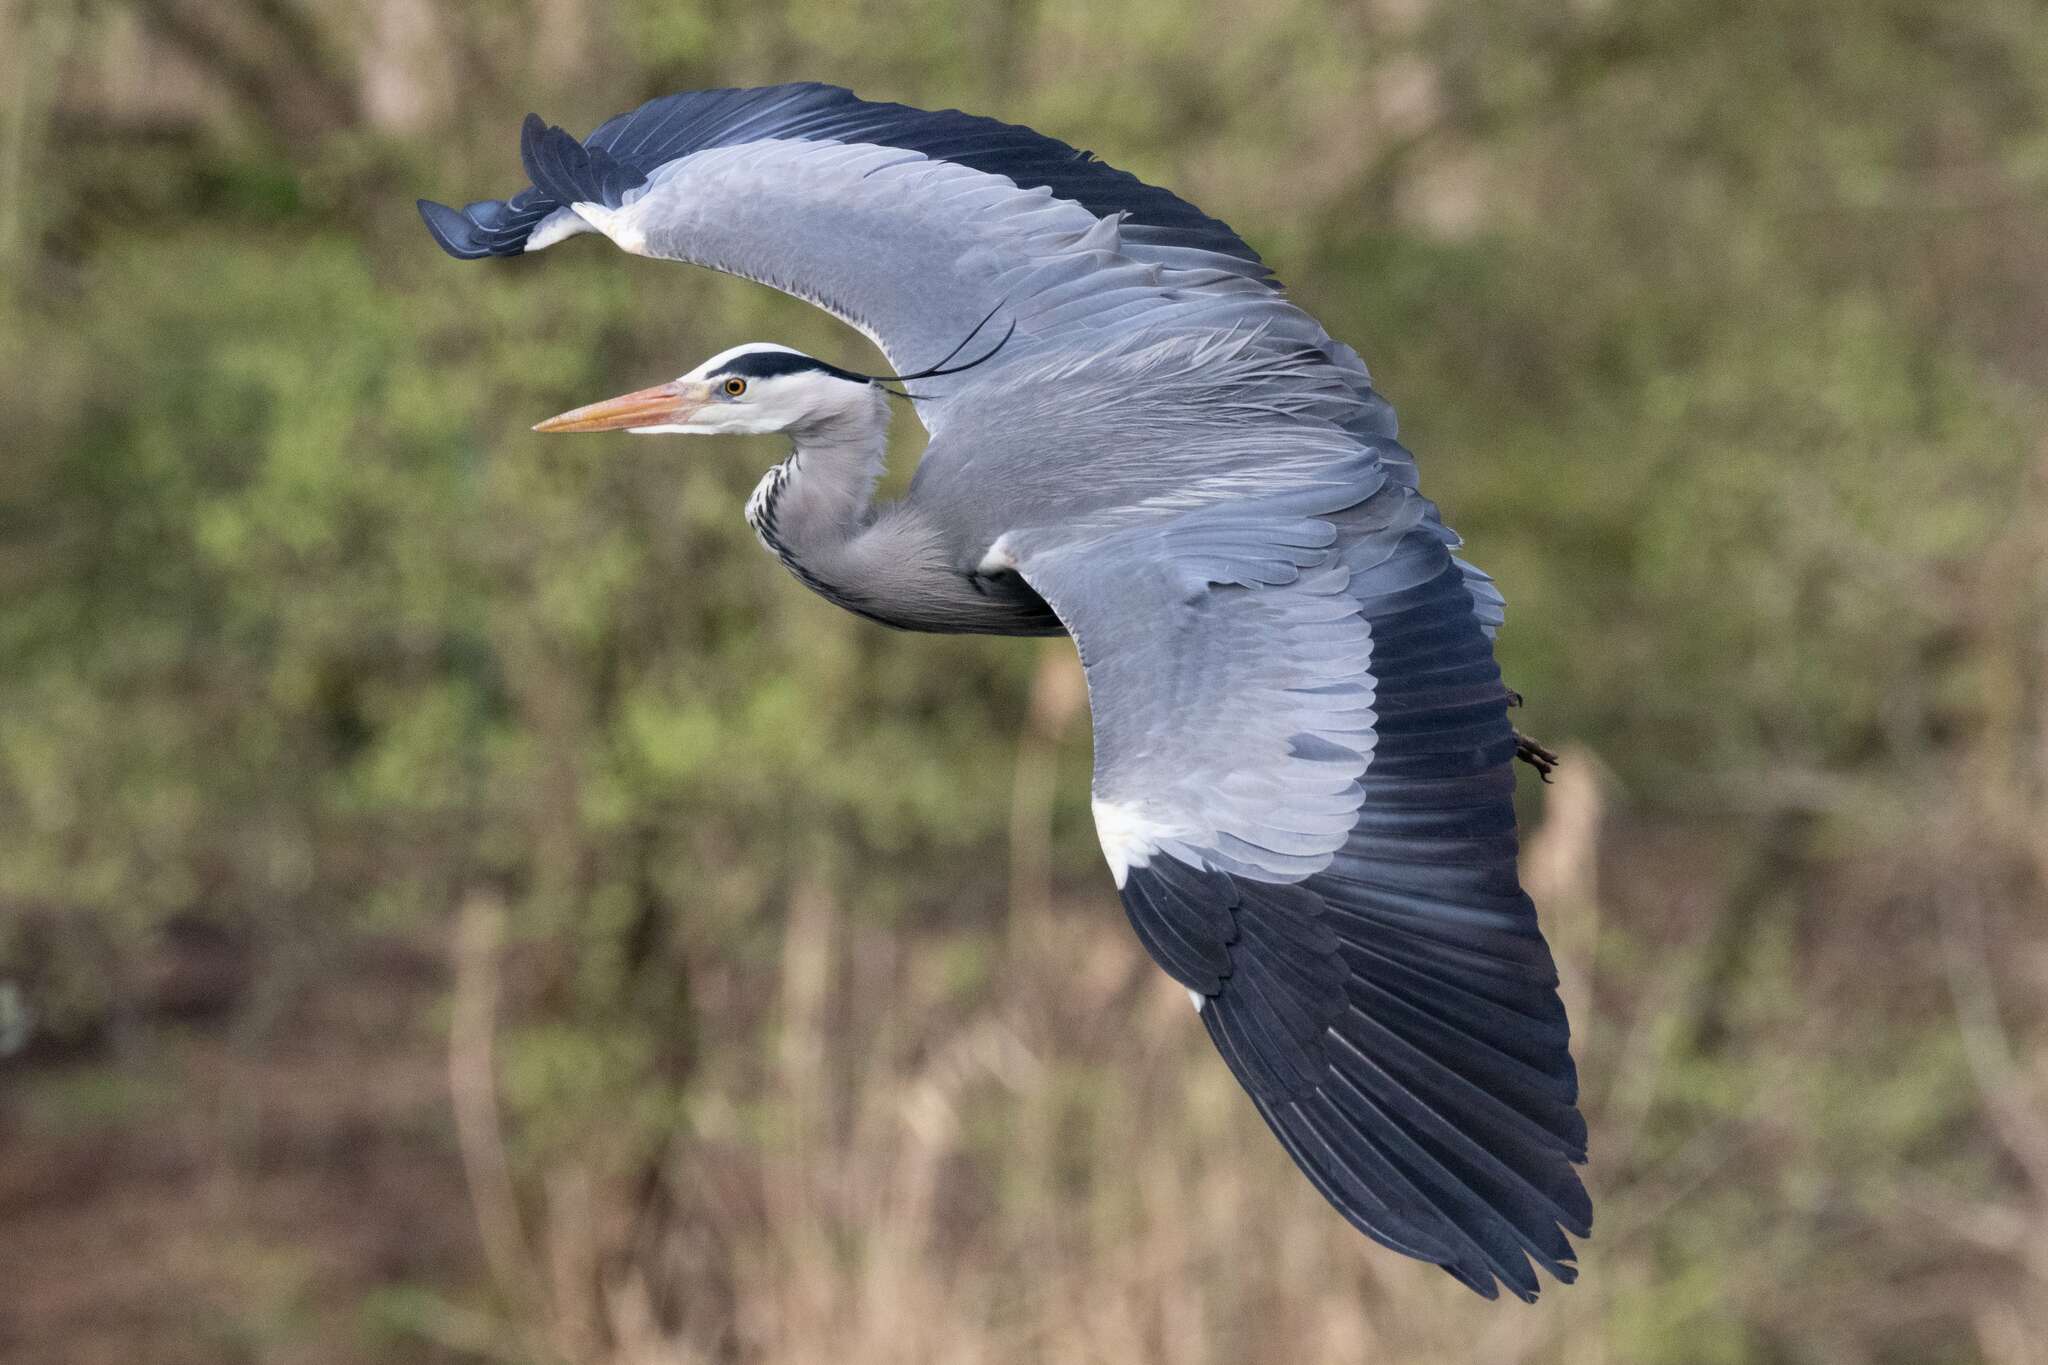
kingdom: Animalia
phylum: Chordata
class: Aves
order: Pelecaniformes
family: Ardeidae
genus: Ardea
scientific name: Ardea cinerea
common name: Grey heron
